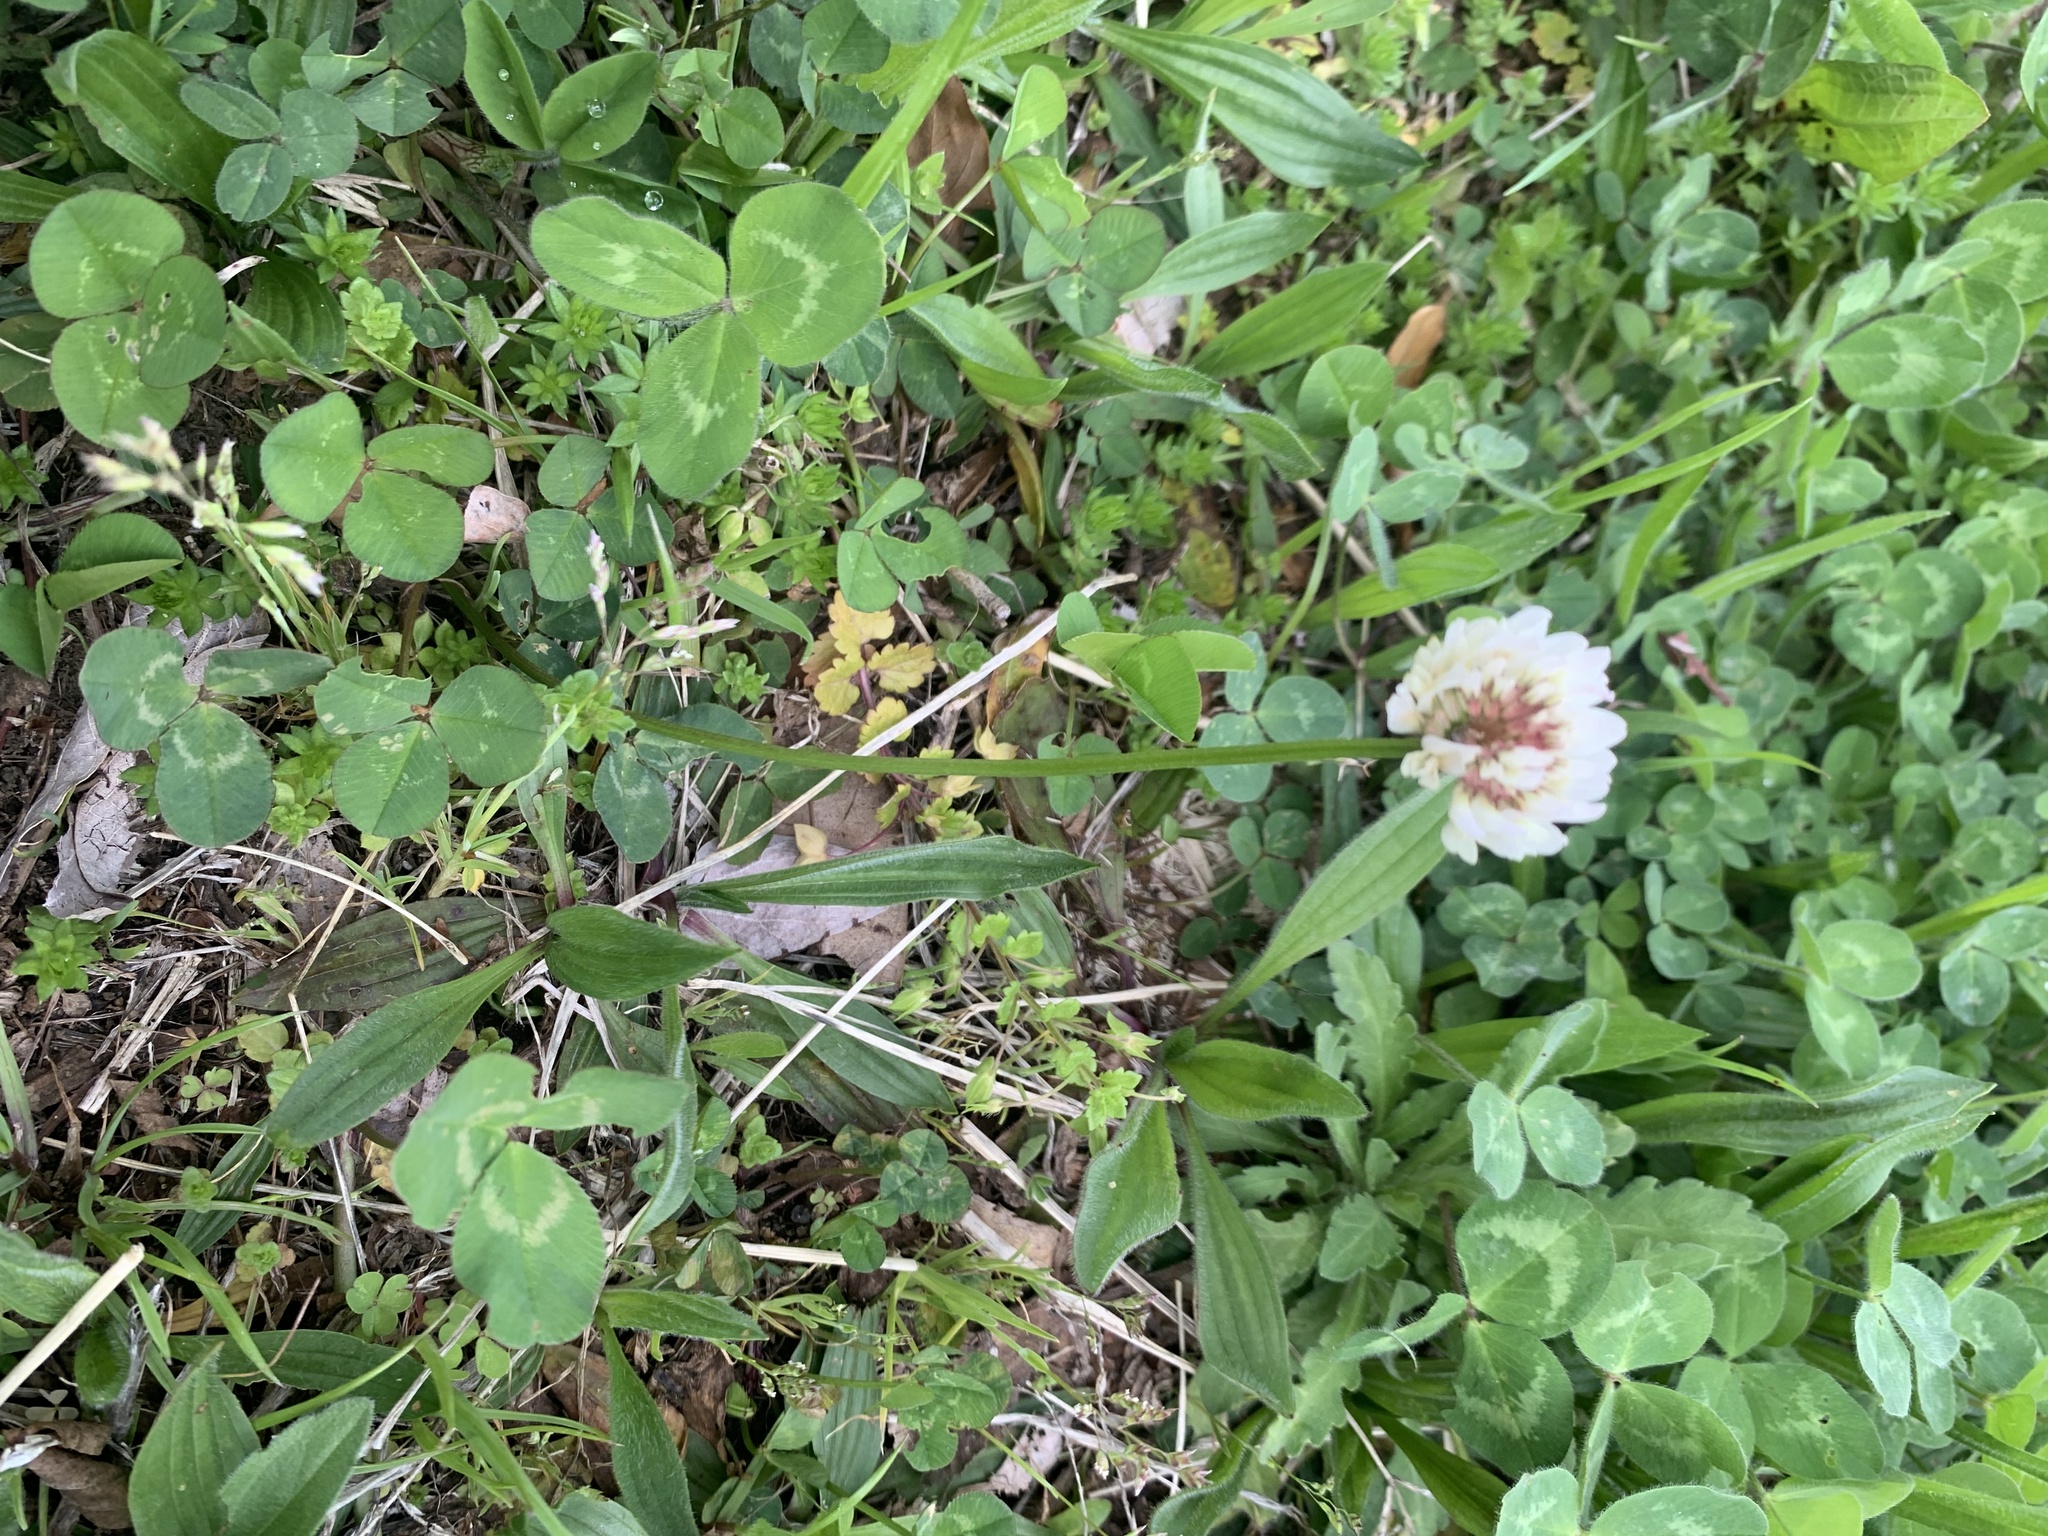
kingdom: Plantae
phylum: Tracheophyta
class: Magnoliopsida
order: Fabales
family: Fabaceae
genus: Trifolium
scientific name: Trifolium repens
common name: White clover
